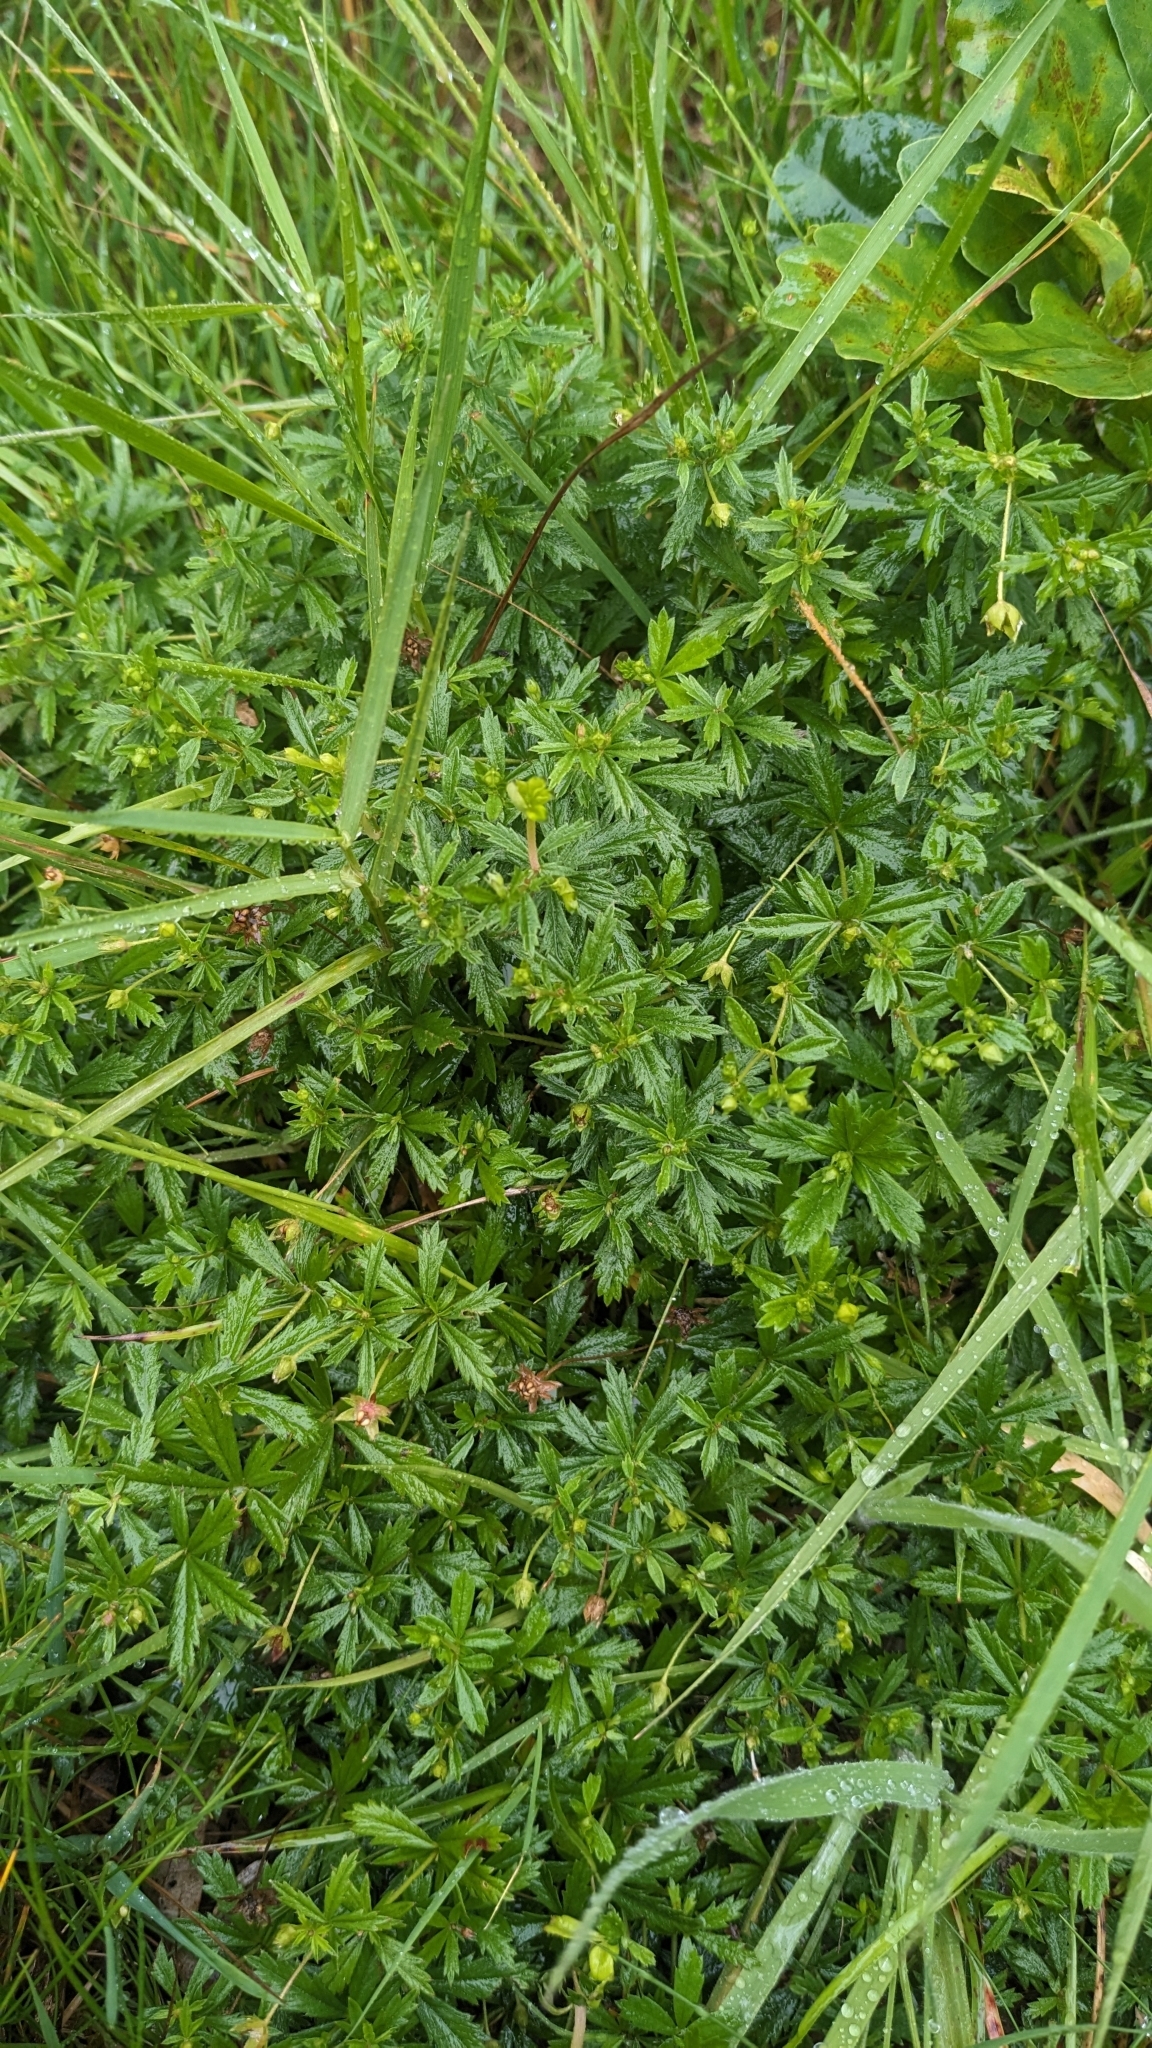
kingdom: Plantae
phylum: Tracheophyta
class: Magnoliopsida
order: Rosales
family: Rosaceae
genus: Potentilla
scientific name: Potentilla erecta
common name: Tormentil
